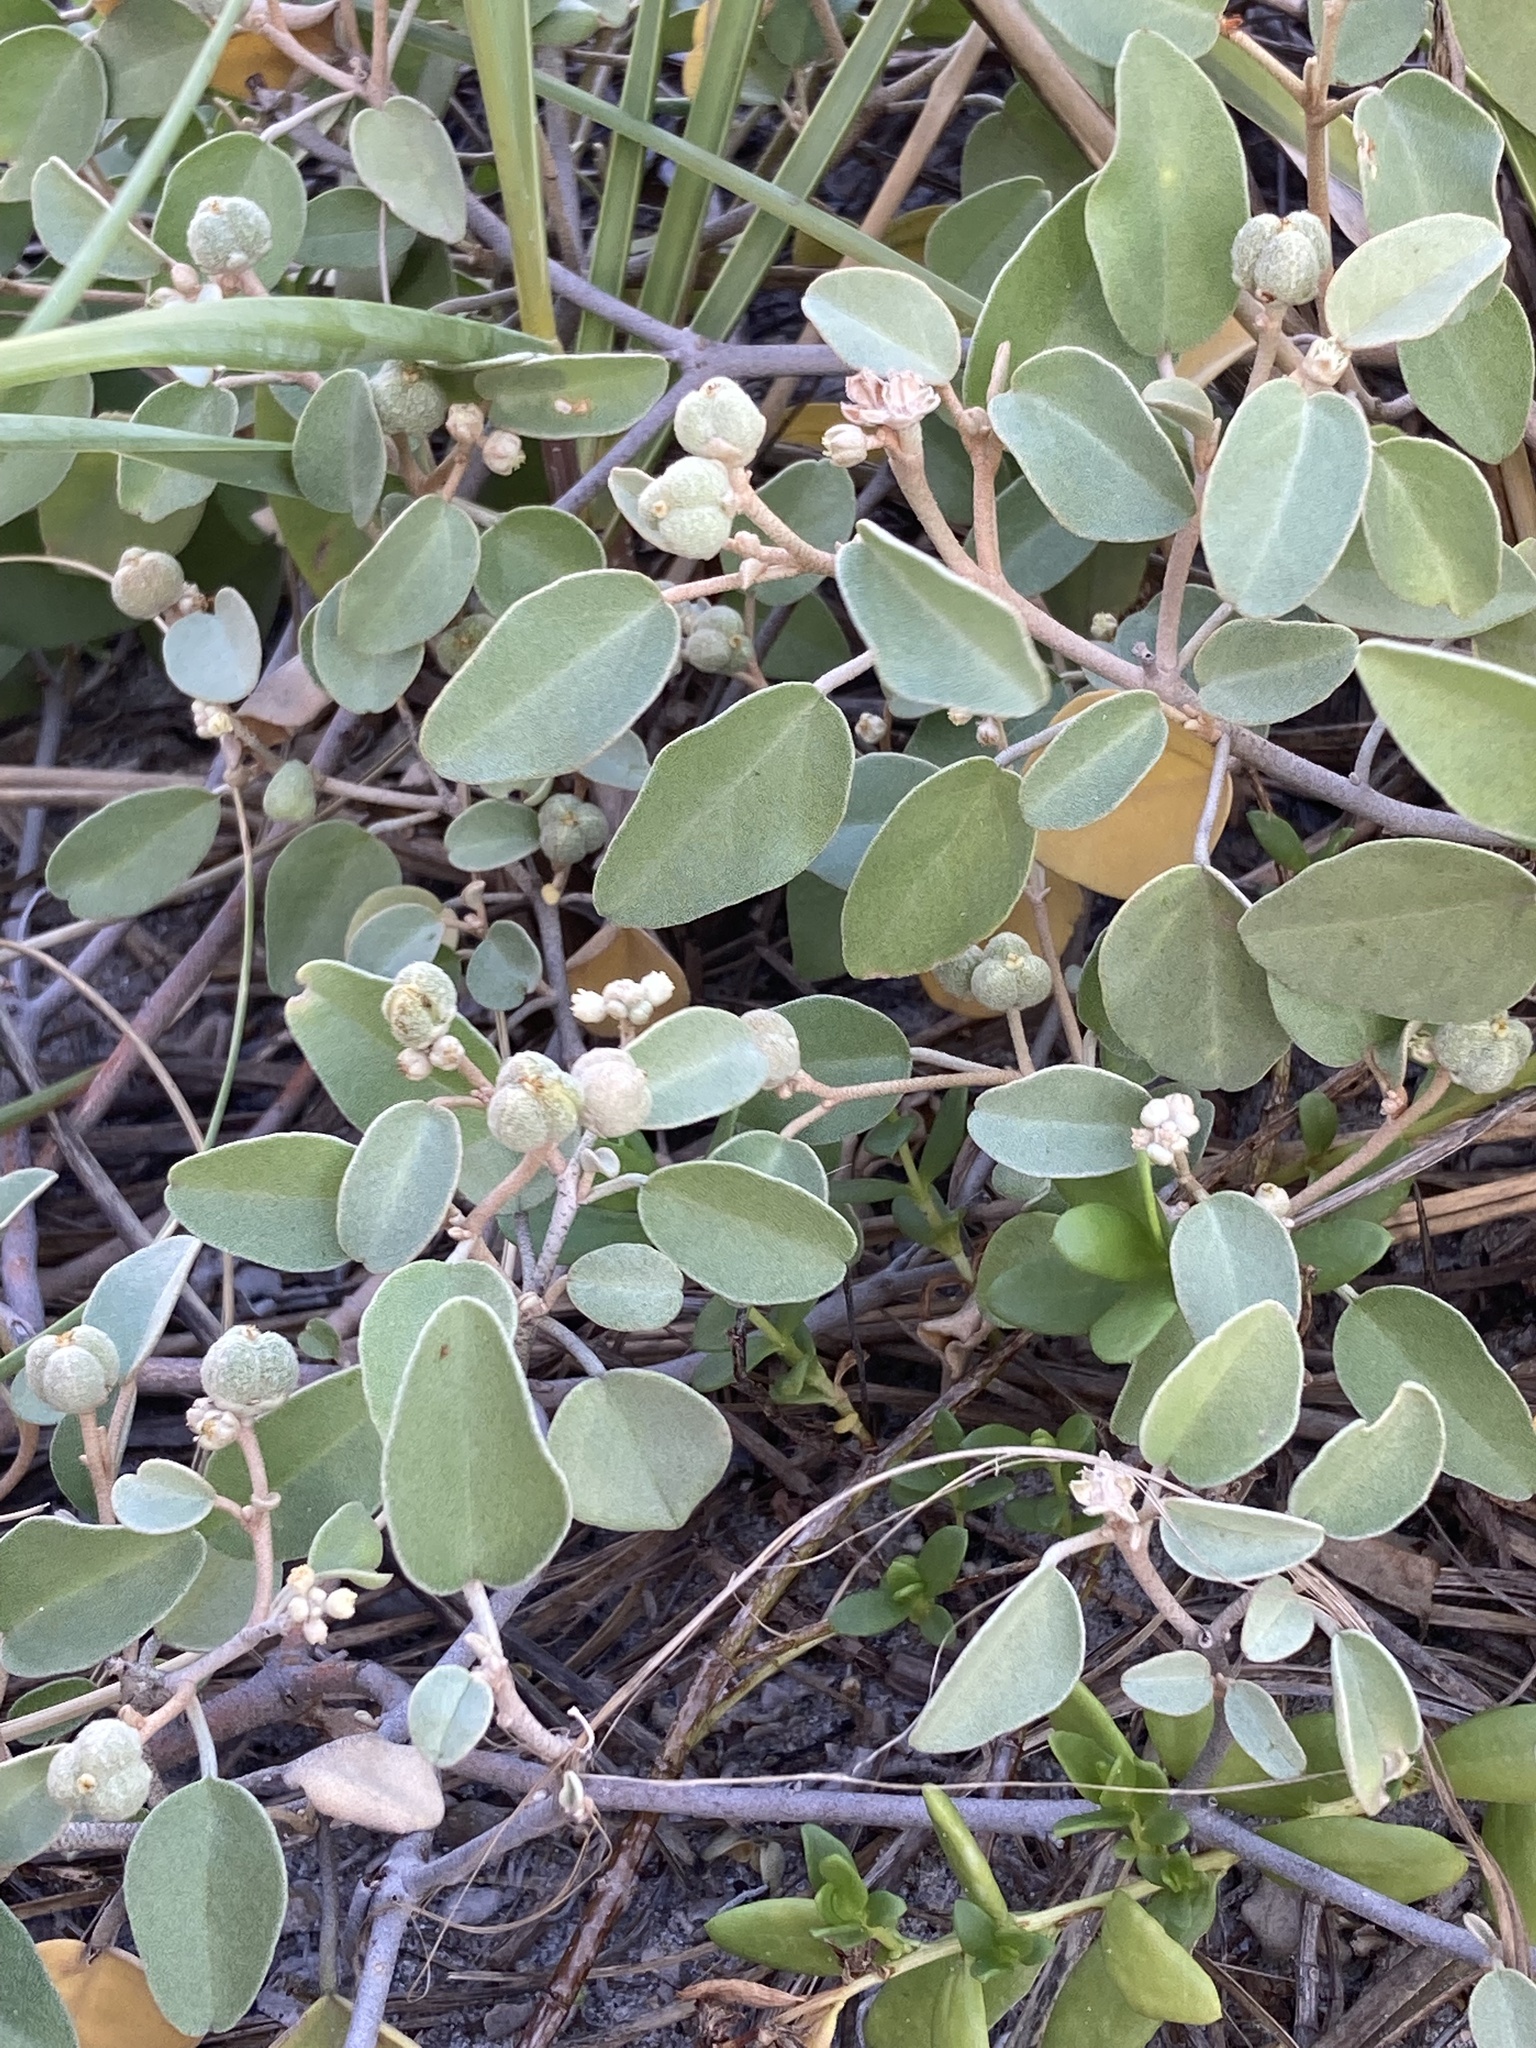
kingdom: Plantae
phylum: Tracheophyta
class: Magnoliopsida
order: Malpighiales
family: Euphorbiaceae
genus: Croton
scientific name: Croton punctatus
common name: Beach-tea
